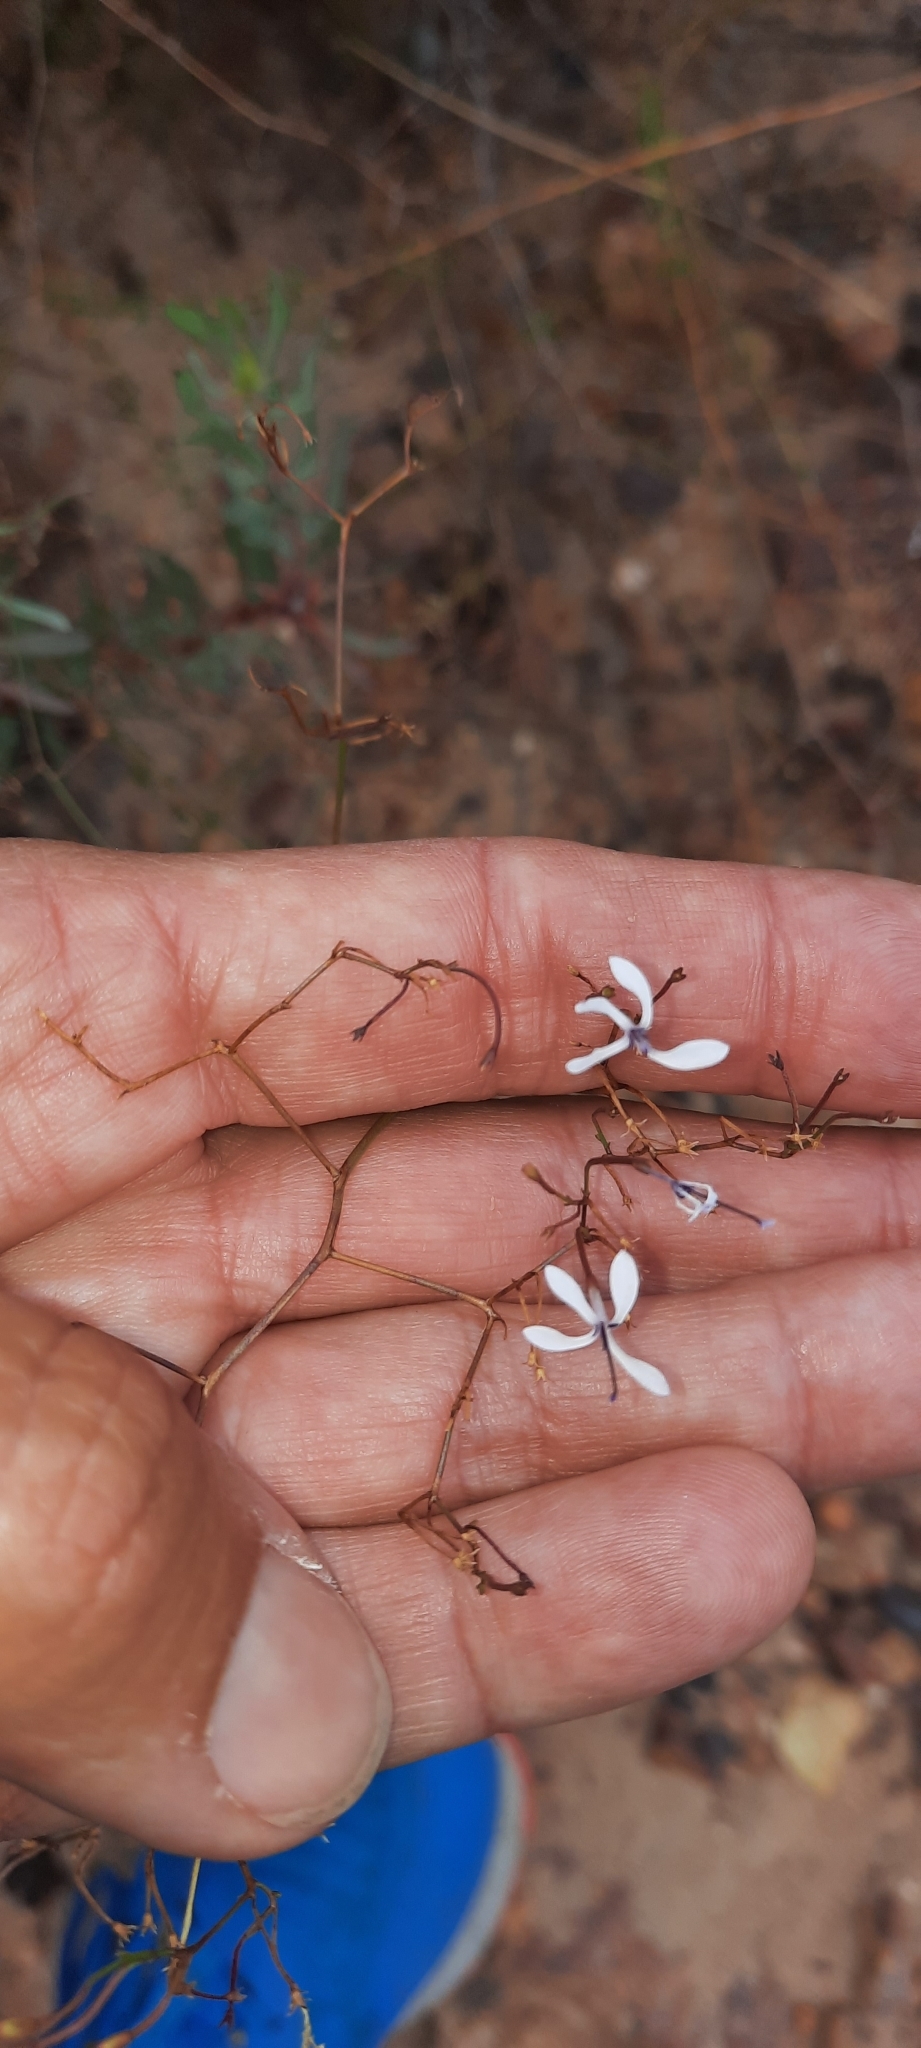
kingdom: Plantae
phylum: Tracheophyta
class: Magnoliopsida
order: Asterales
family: Campanulaceae
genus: Prismatocarpus
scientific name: Prismatocarpus diffusus
